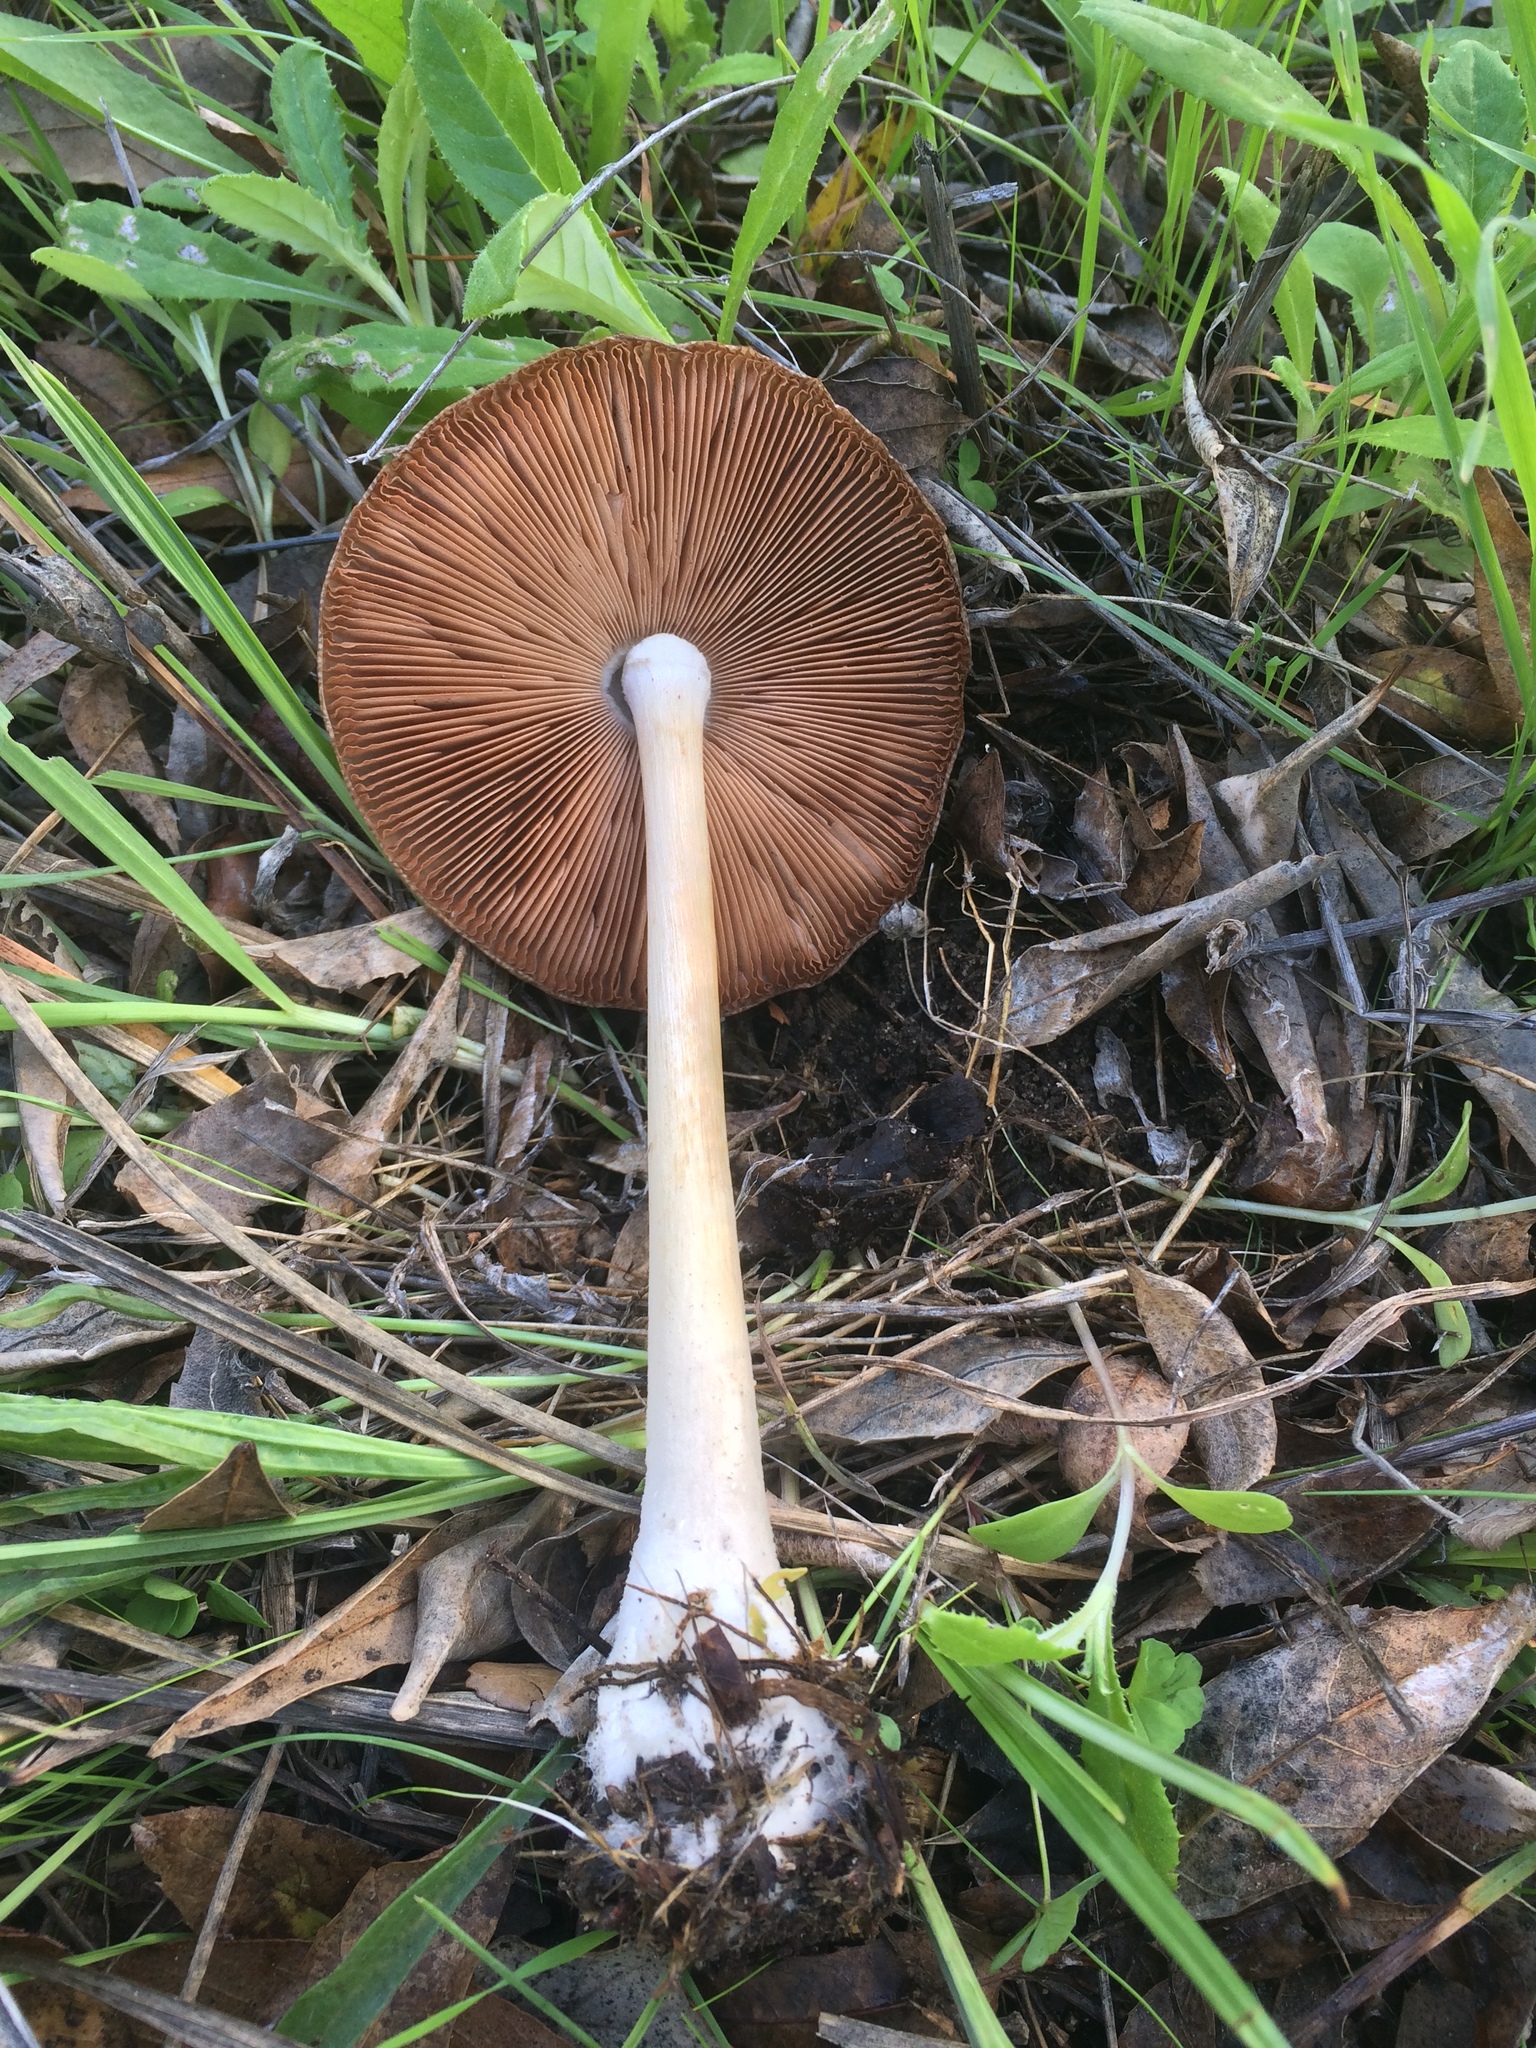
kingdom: Fungi
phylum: Basidiomycota
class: Agaricomycetes
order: Agaricales
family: Pluteaceae
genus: Volvopluteus
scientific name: Volvopluteus gloiocephalus
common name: Stubble rosegill
